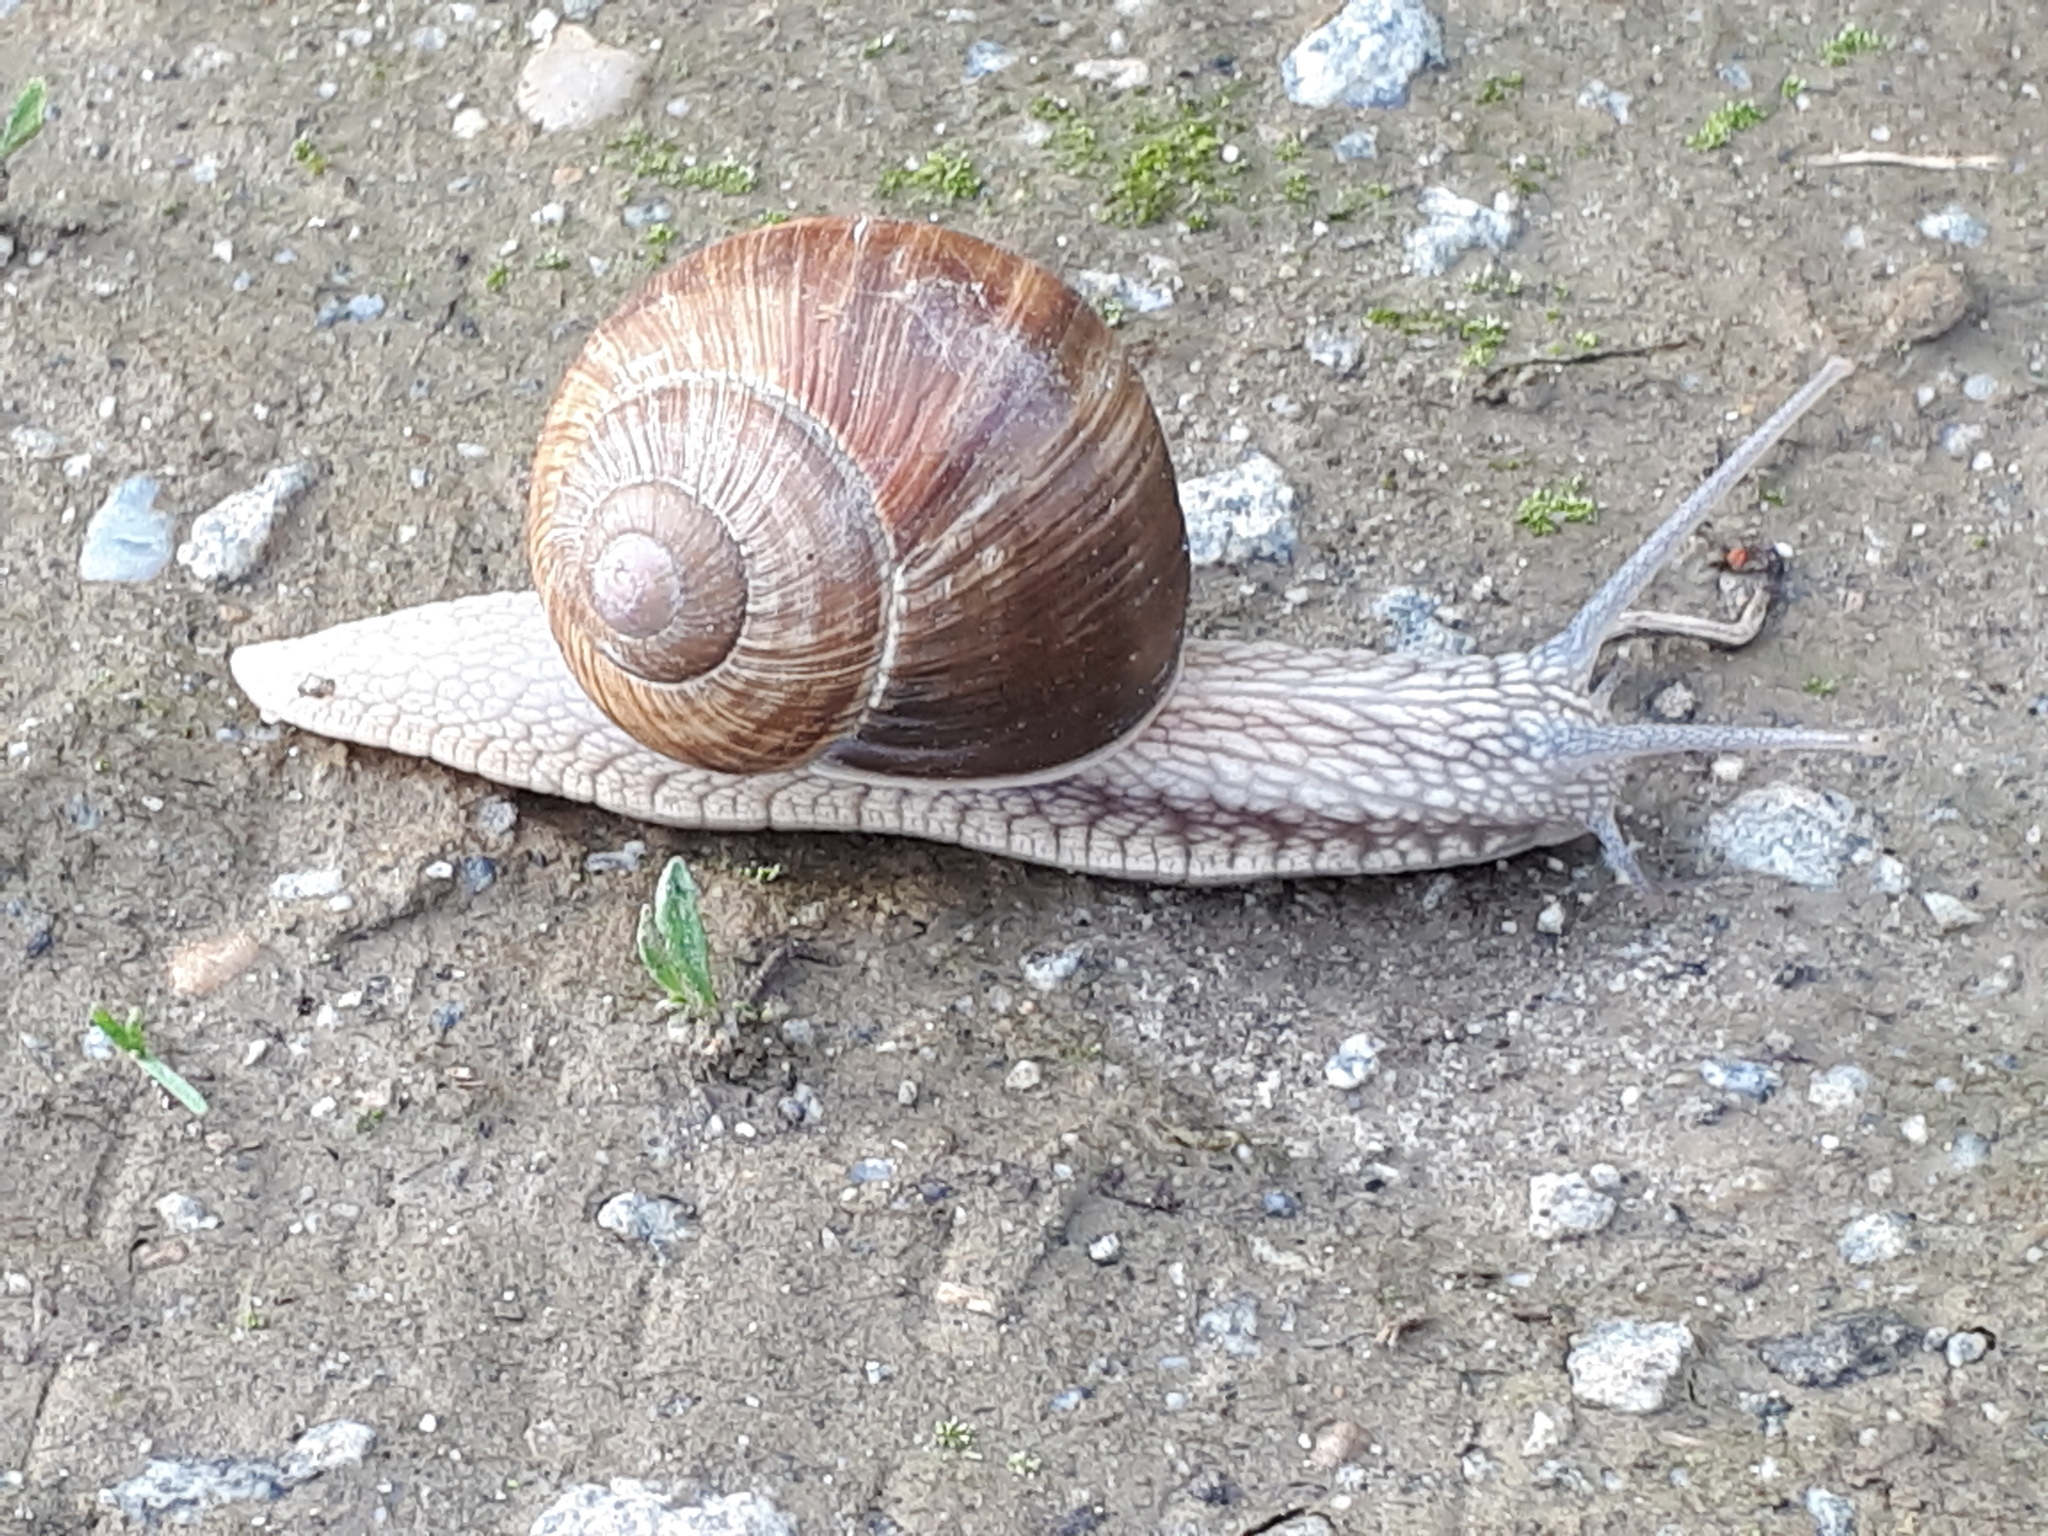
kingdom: Animalia
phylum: Mollusca
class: Gastropoda
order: Stylommatophora
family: Helicidae
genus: Helix
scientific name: Helix pomatia
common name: Roman snail
